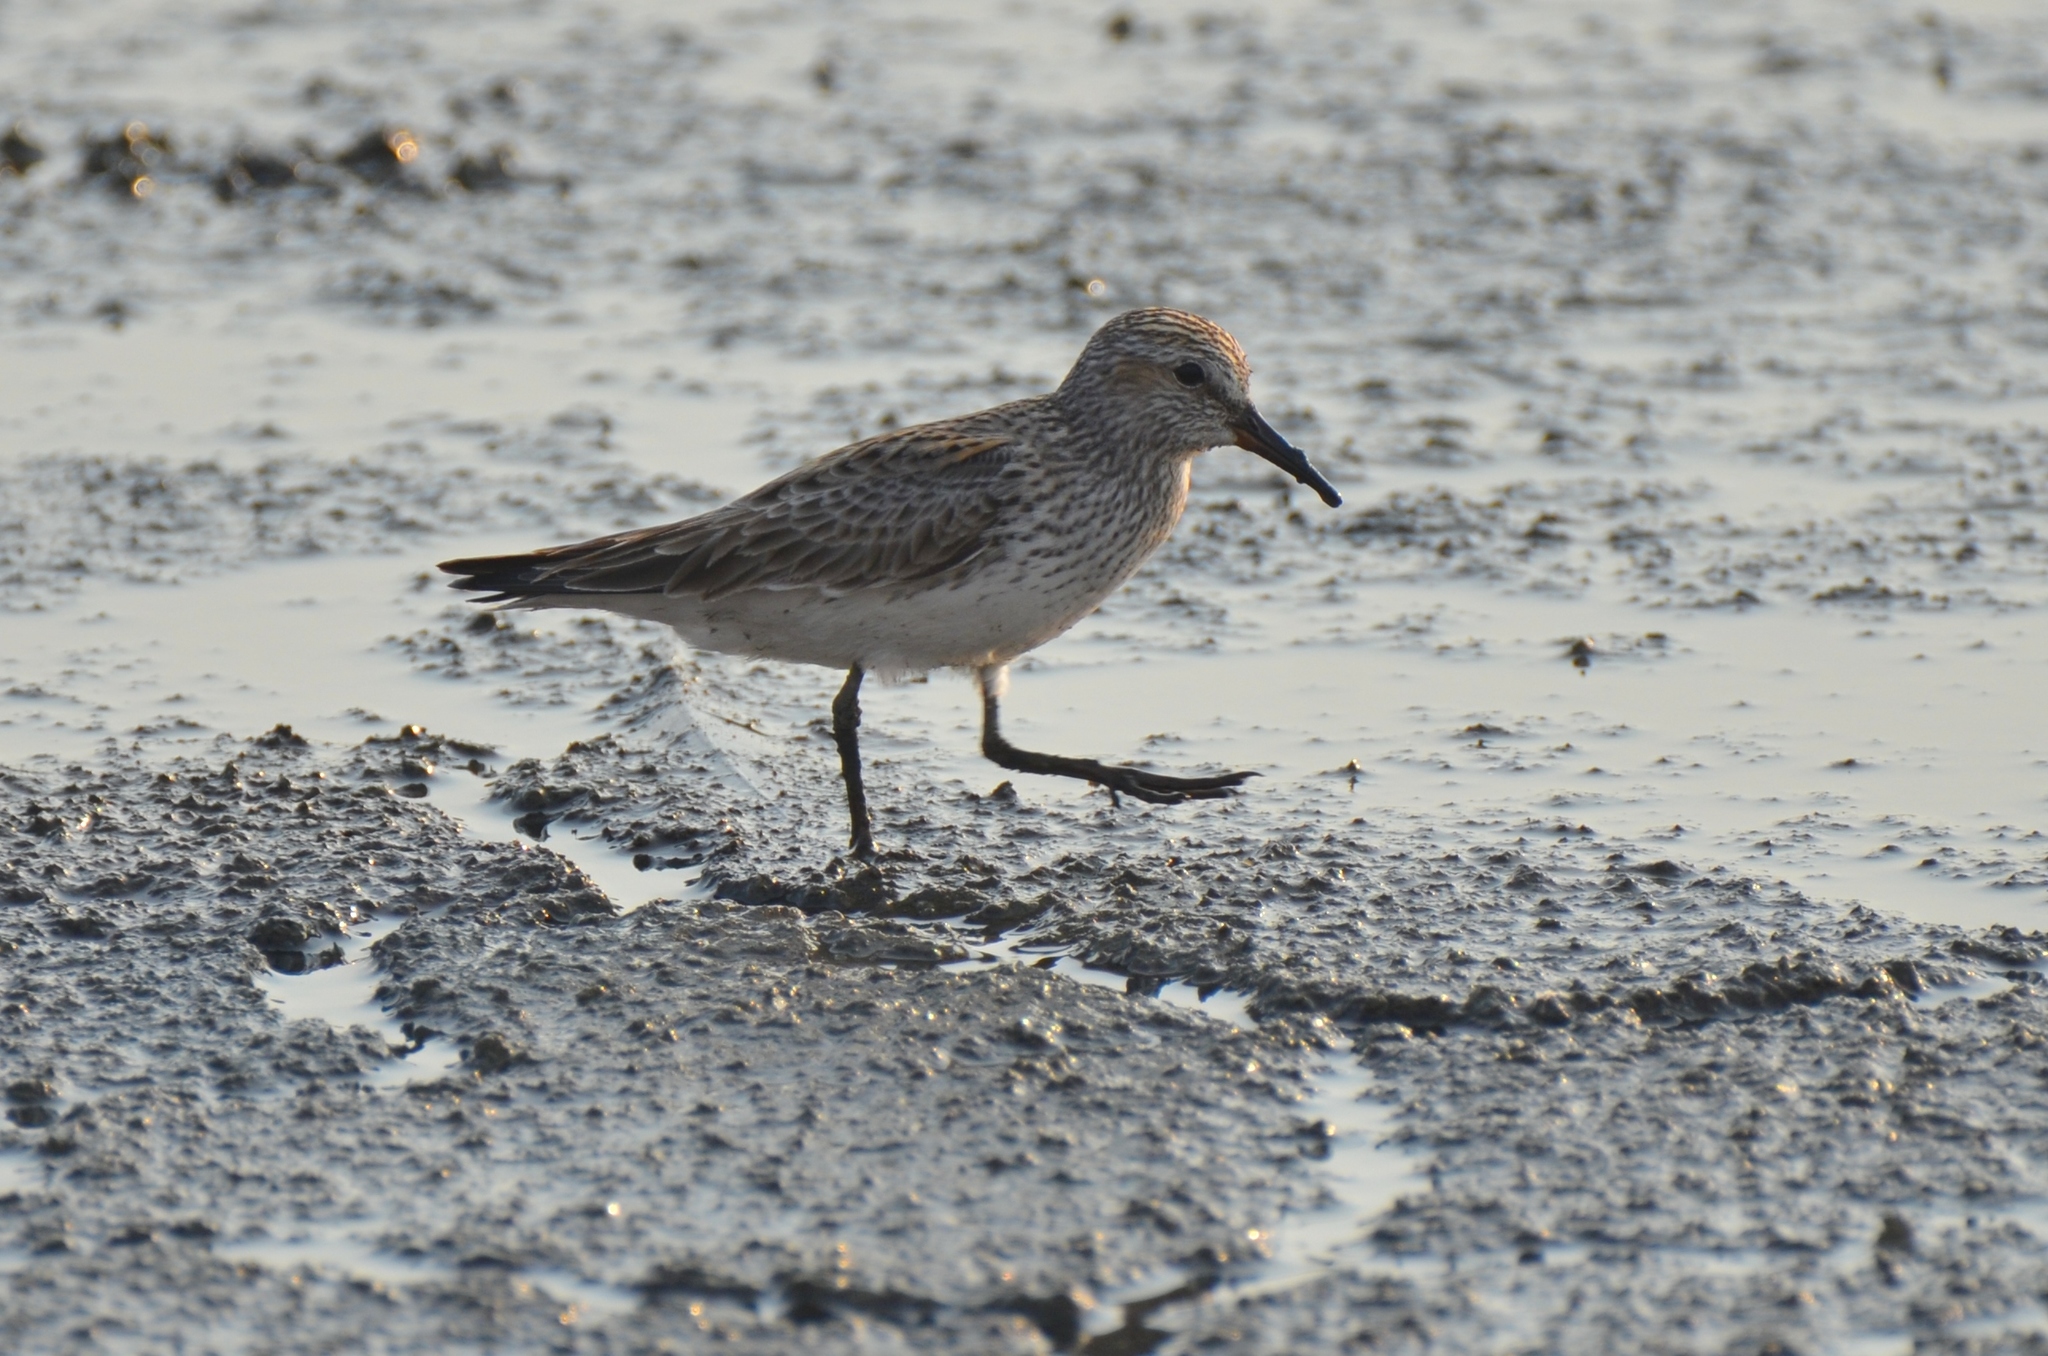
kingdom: Animalia
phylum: Chordata
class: Aves
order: Charadriiformes
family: Scolopacidae
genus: Calidris
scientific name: Calidris fuscicollis
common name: White-rumped sandpiper
